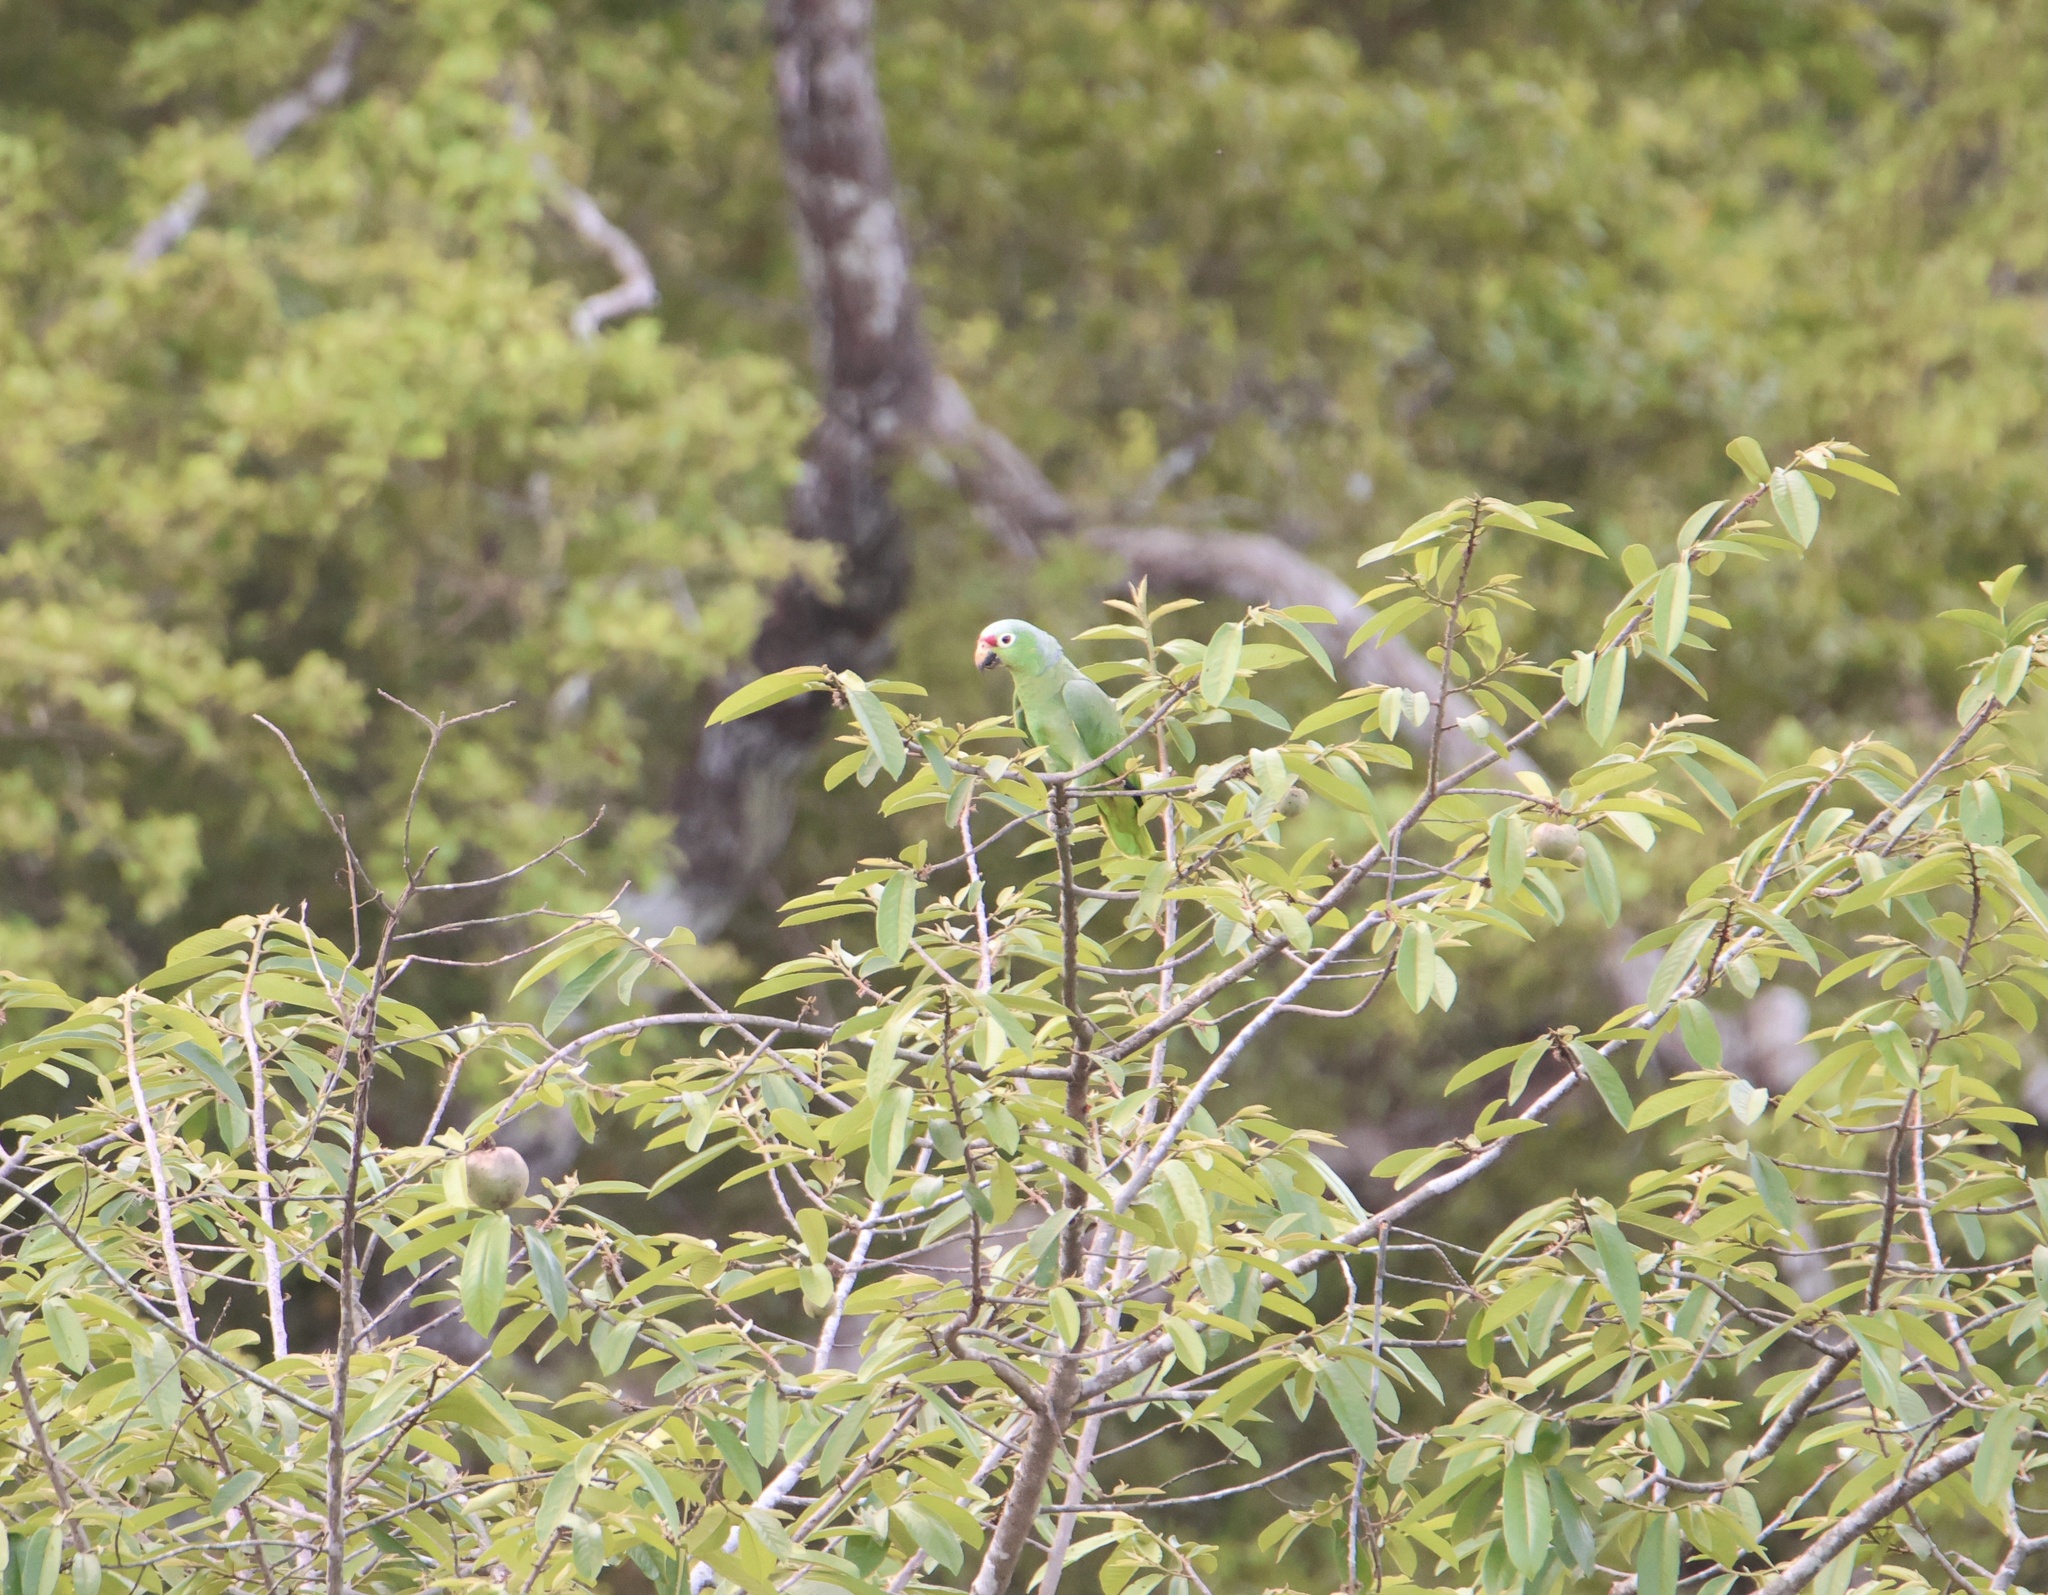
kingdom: Animalia
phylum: Chordata
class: Aves
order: Psittaciformes
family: Psittacidae
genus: Amazona
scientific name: Amazona autumnalis
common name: Red-lored amazon
